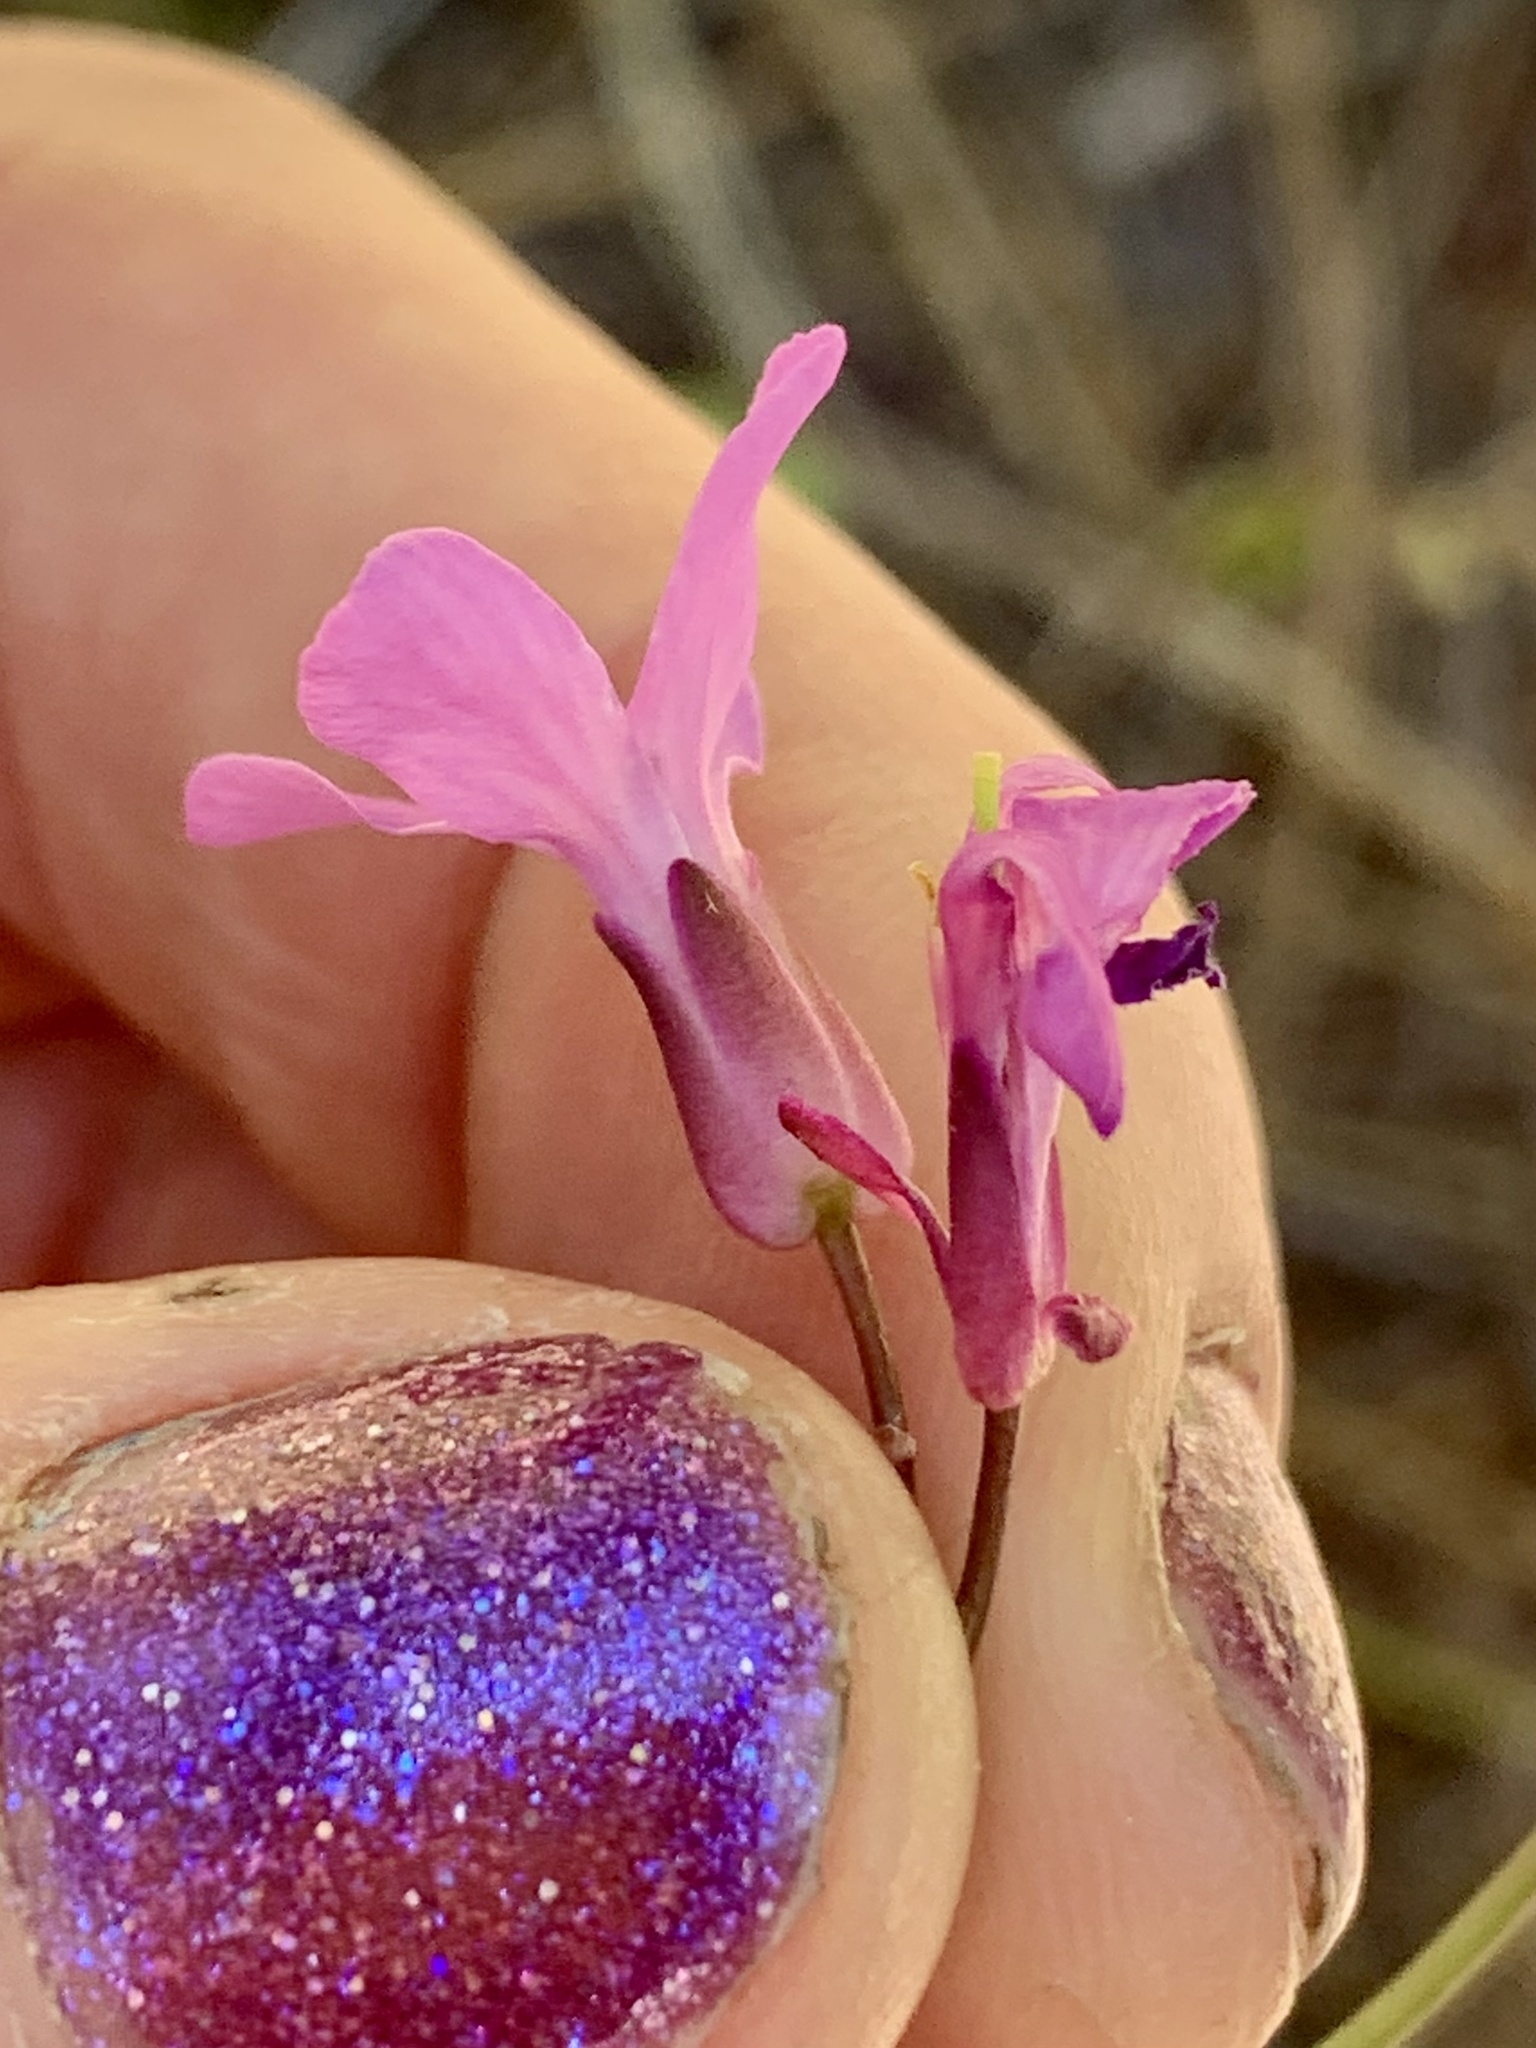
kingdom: Plantae
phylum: Tracheophyta
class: Magnoliopsida
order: Brassicales
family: Brassicaceae
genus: Arabis
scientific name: Arabis aculeolata
